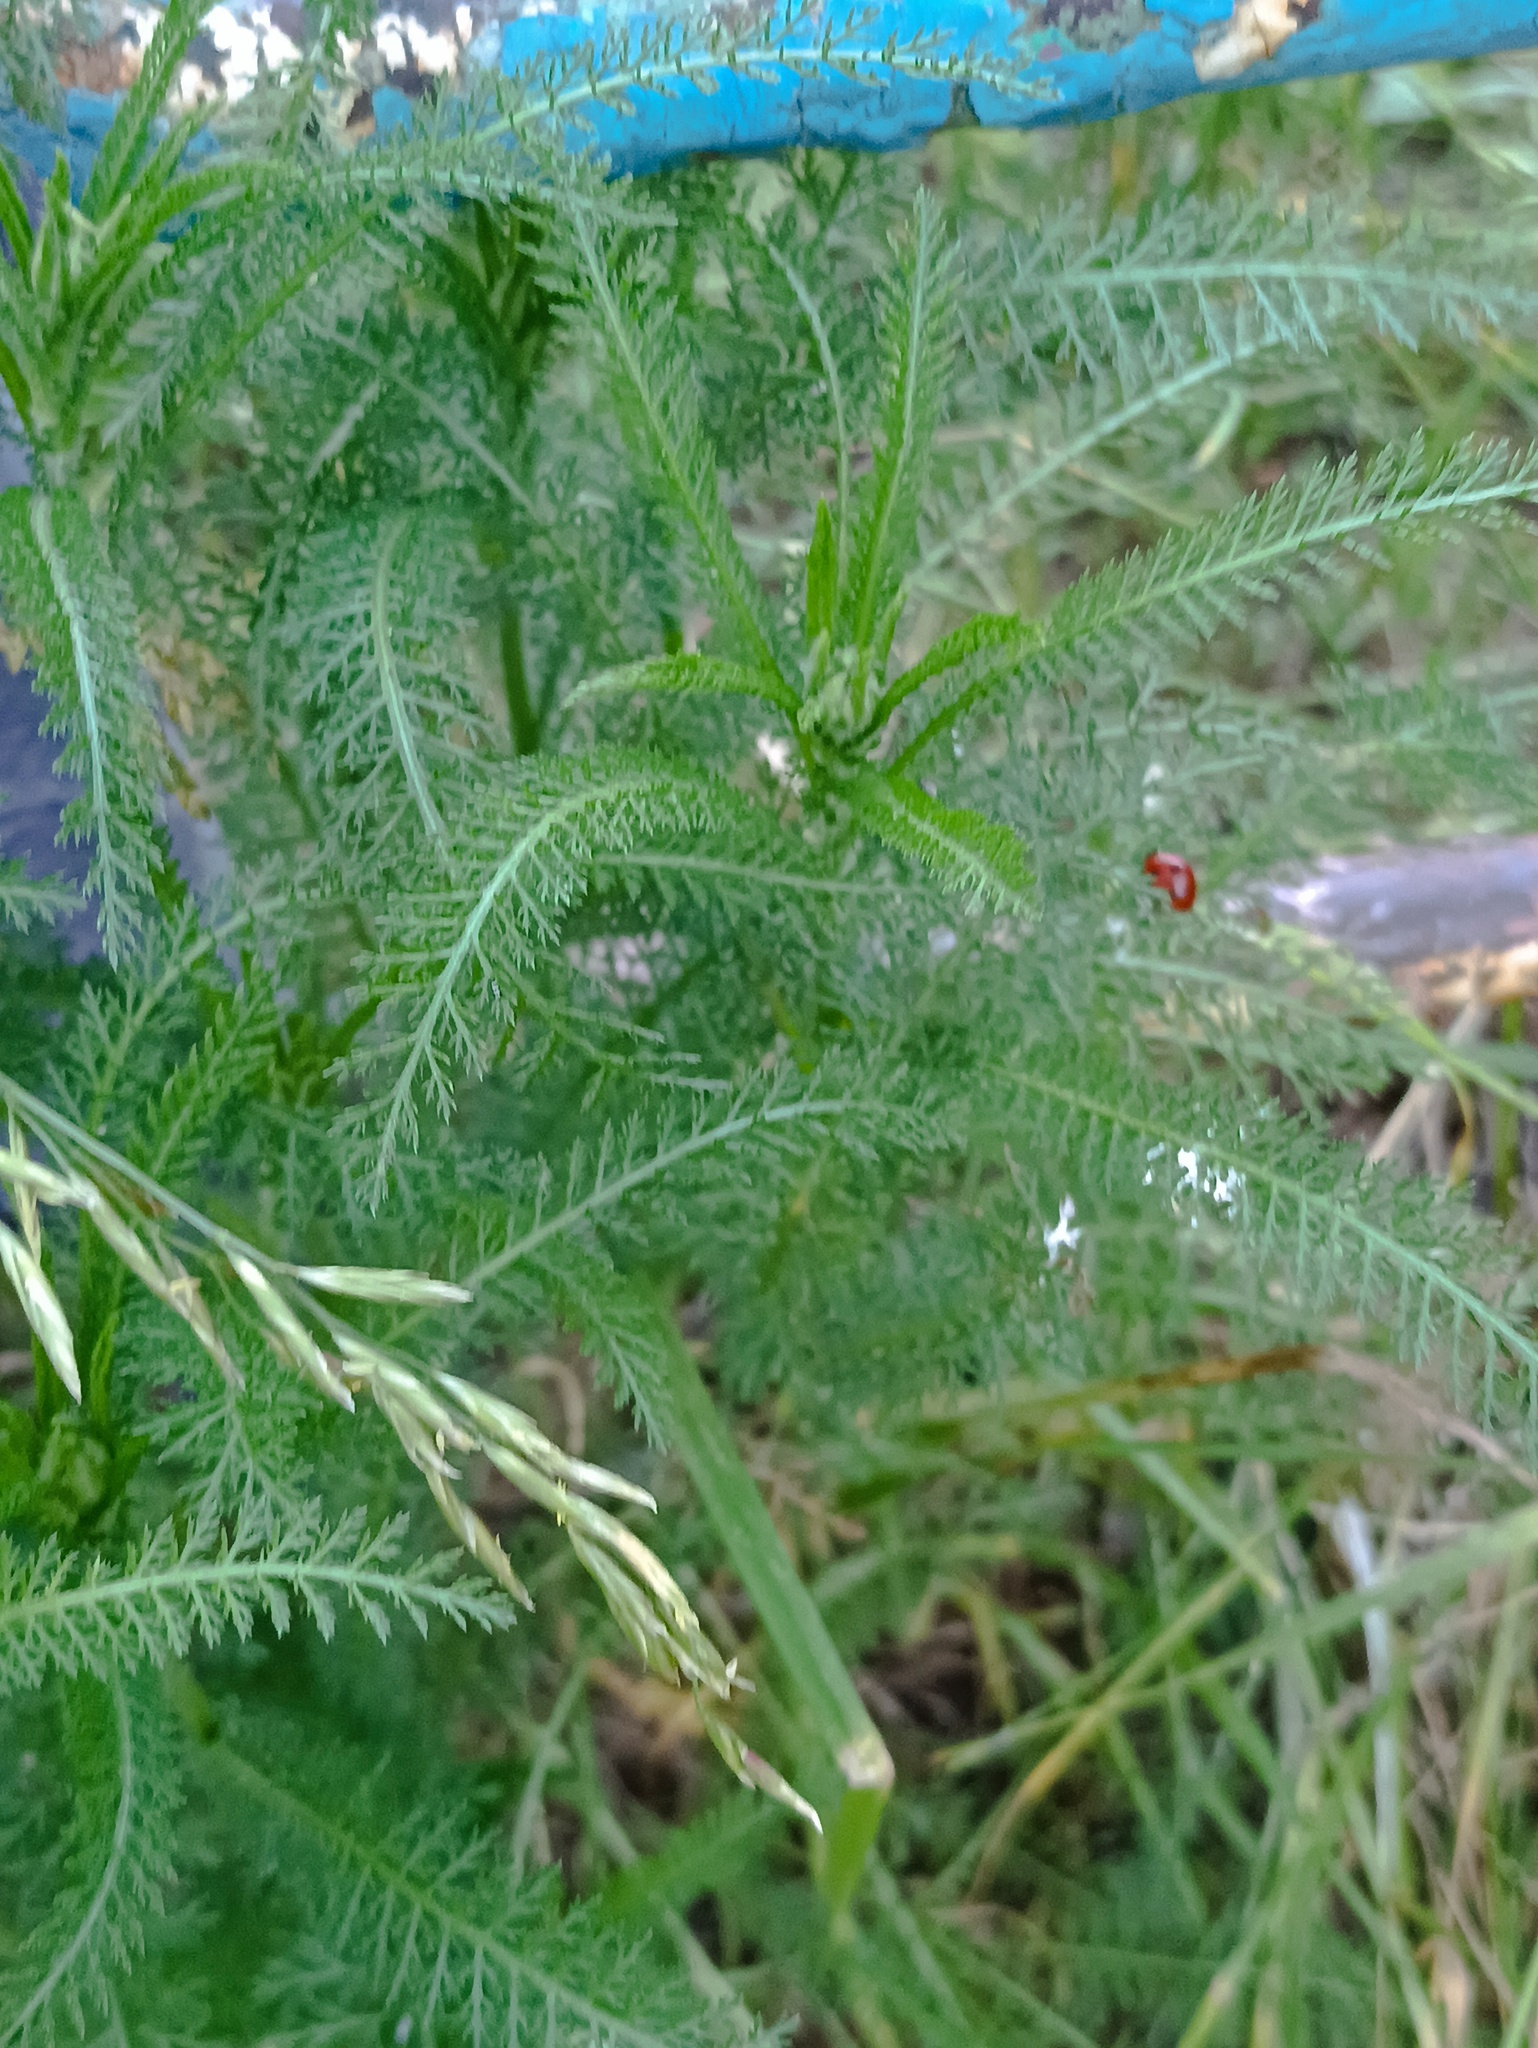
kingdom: Plantae
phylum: Tracheophyta
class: Magnoliopsida
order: Asterales
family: Asteraceae
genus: Achillea
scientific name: Achillea millefolium
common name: Yarrow
